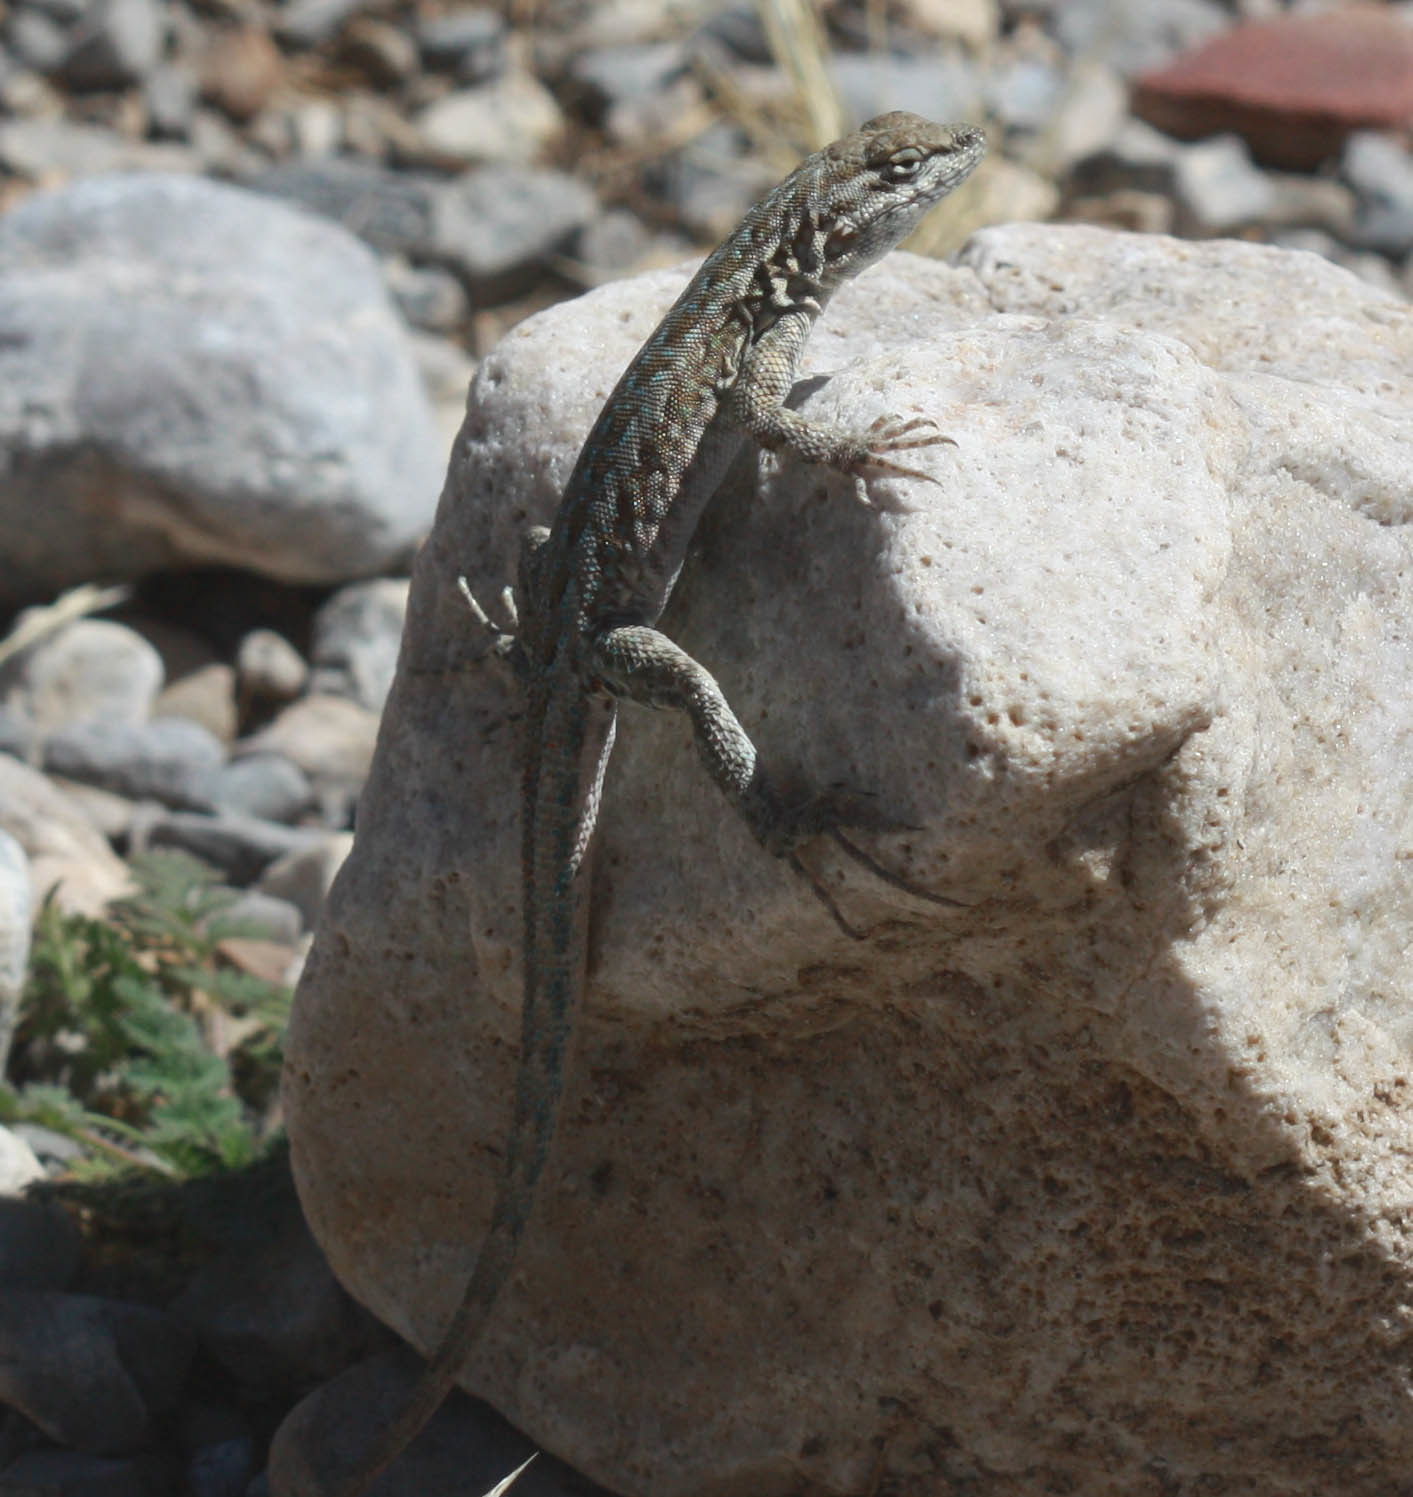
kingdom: Animalia
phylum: Chordata
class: Squamata
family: Phrynosomatidae
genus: Uta
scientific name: Uta stansburiana
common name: Side-blotched lizard
